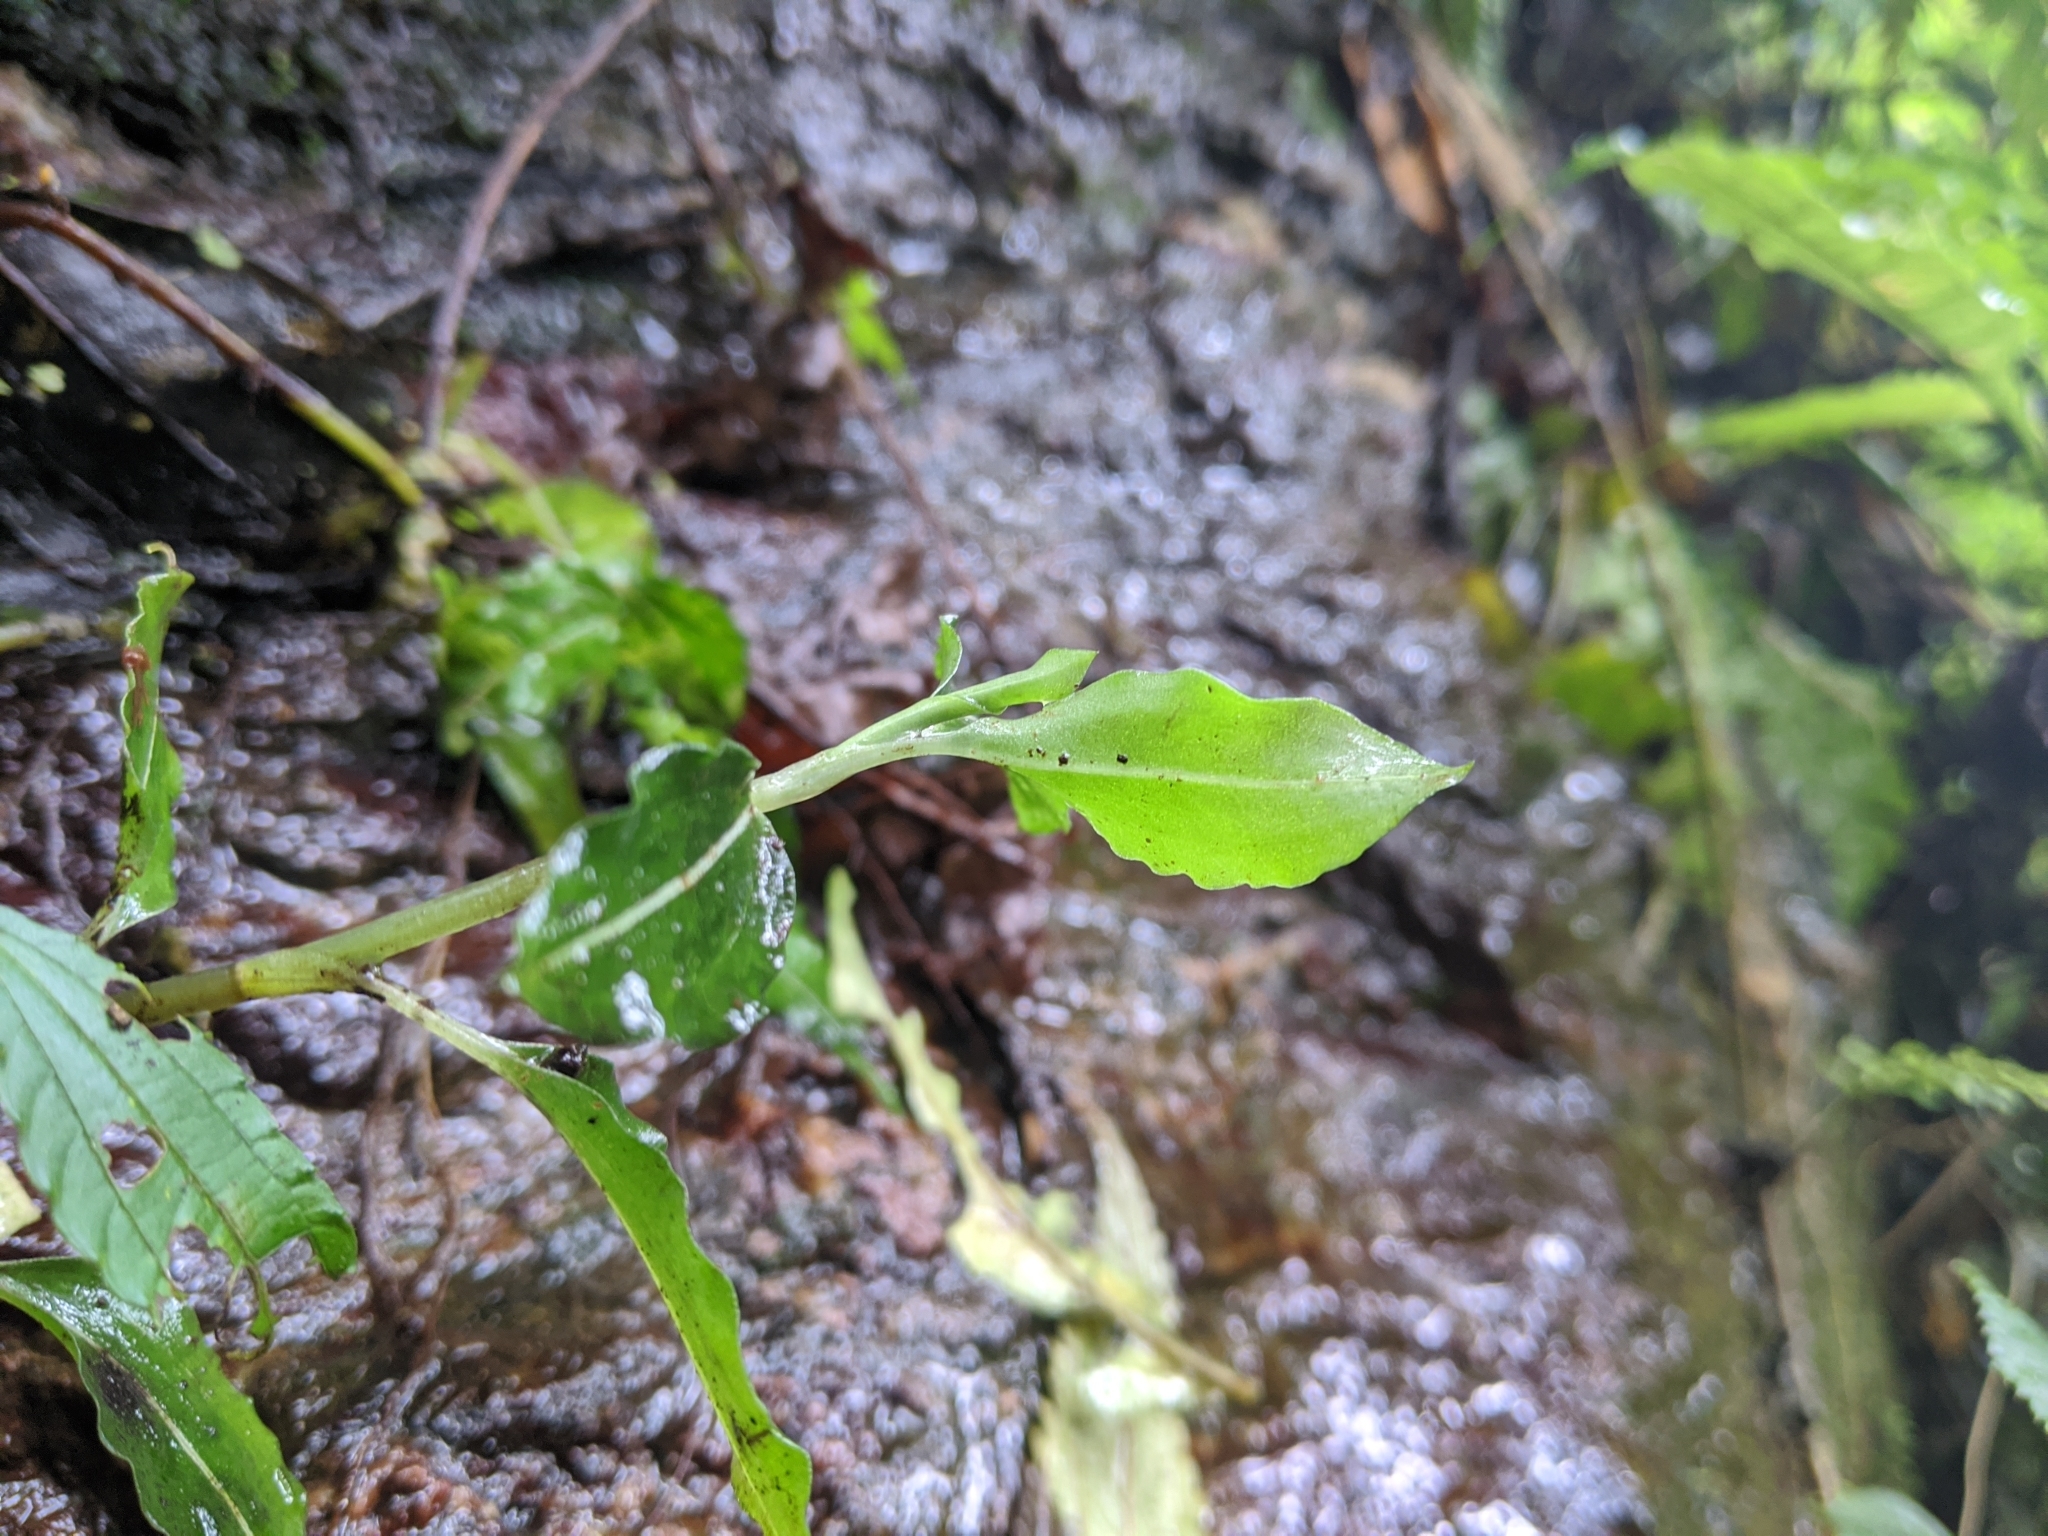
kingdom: Plantae
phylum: Tracheophyta
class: Liliopsida
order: Asparagales
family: Orchidaceae
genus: Rhomboda
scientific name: Rhomboda yakusimensis
